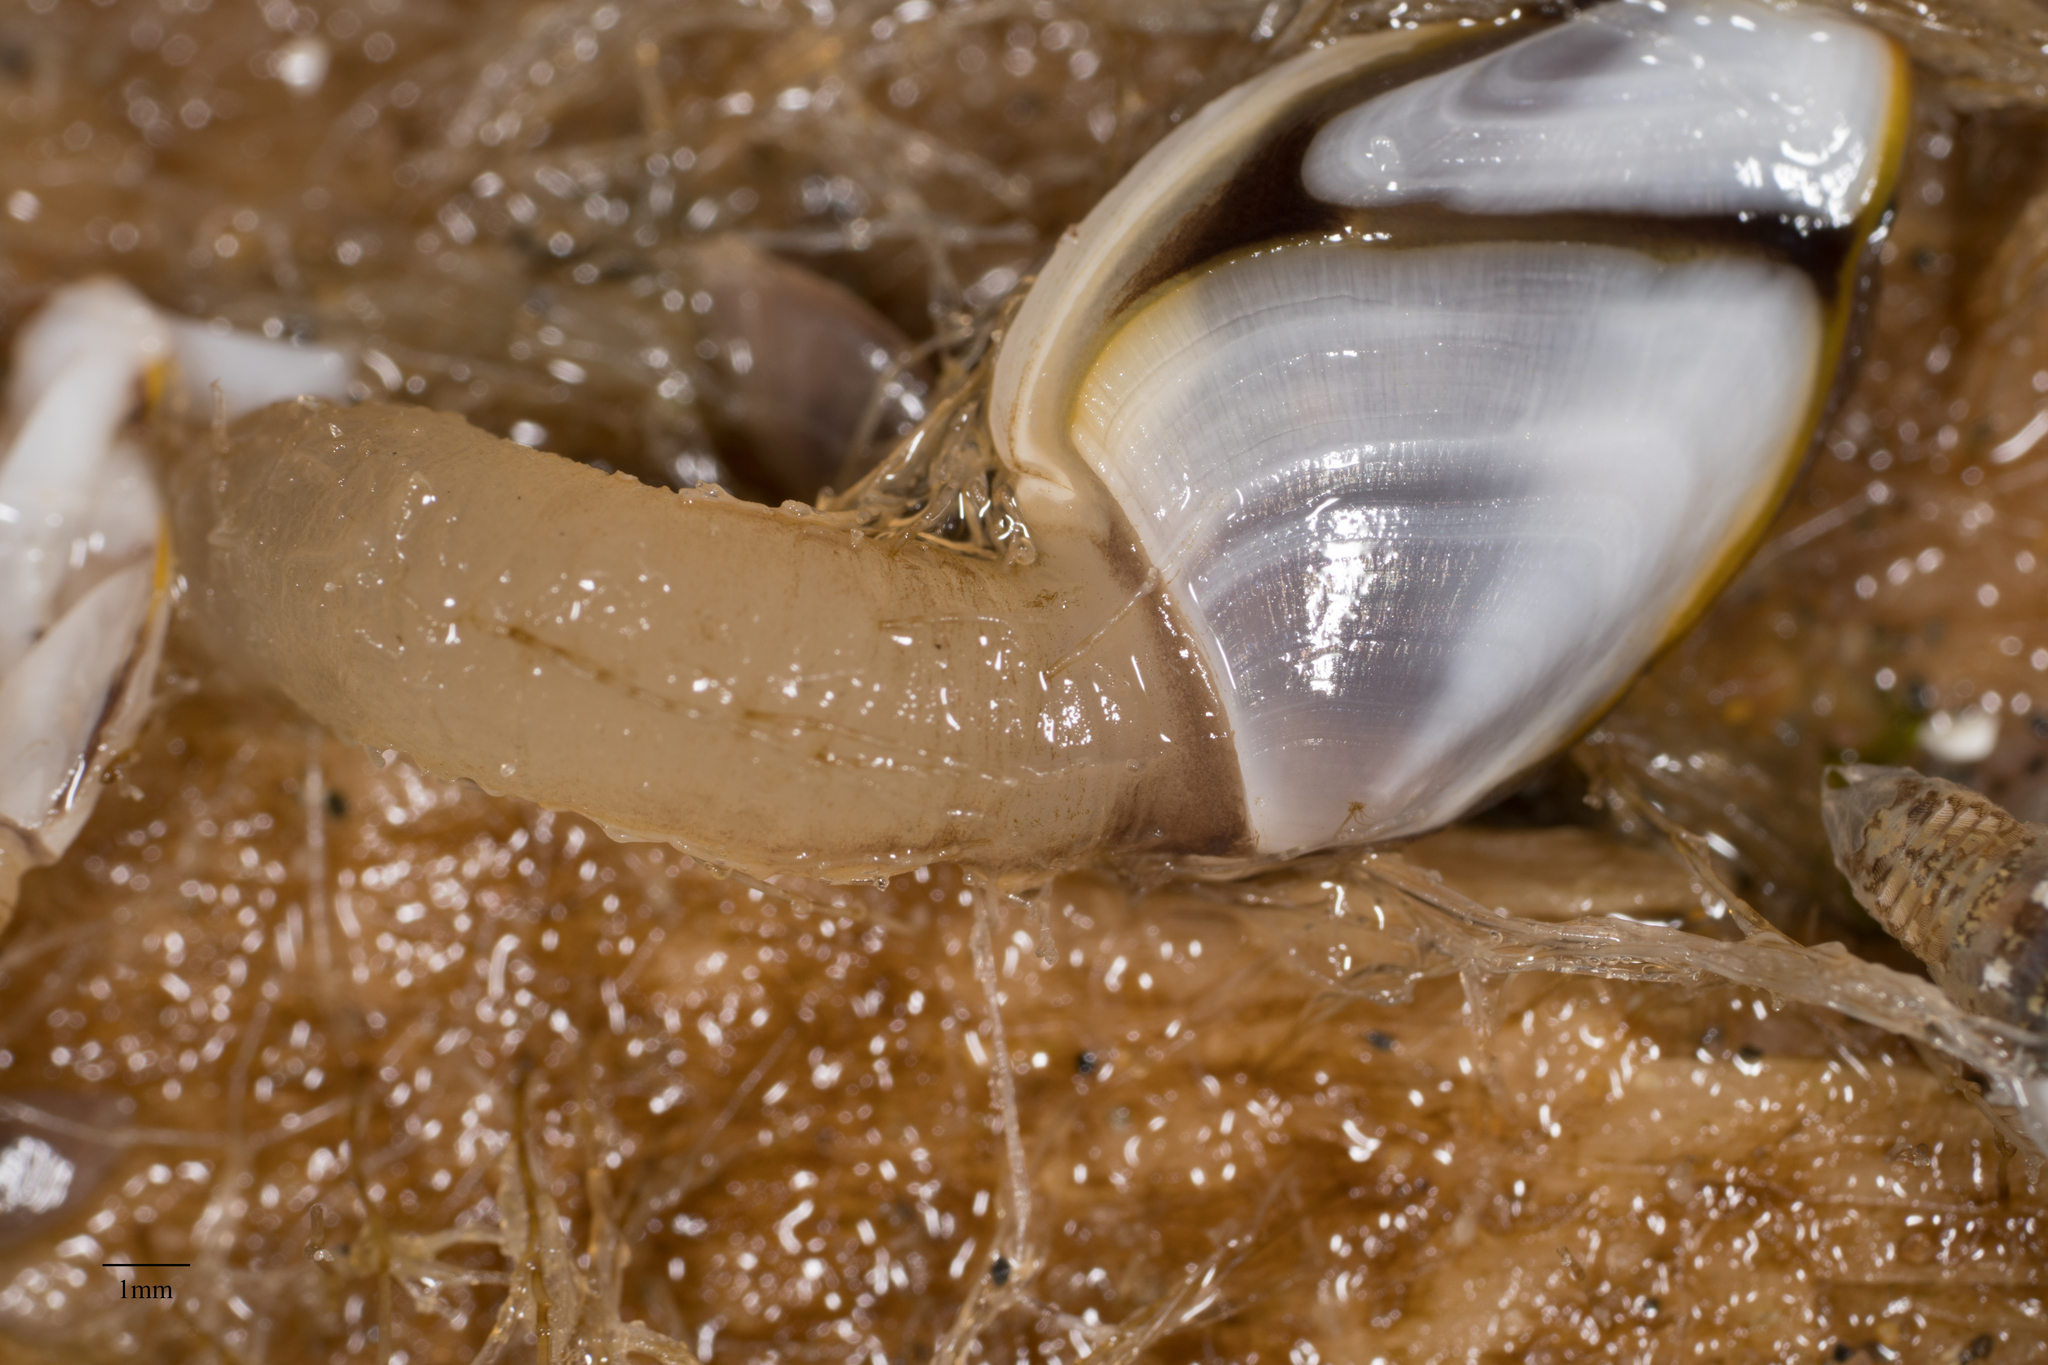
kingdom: Animalia
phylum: Arthropoda
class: Maxillopoda
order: Pedunculata
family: Lepadidae
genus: Lepas
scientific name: Lepas hillii
